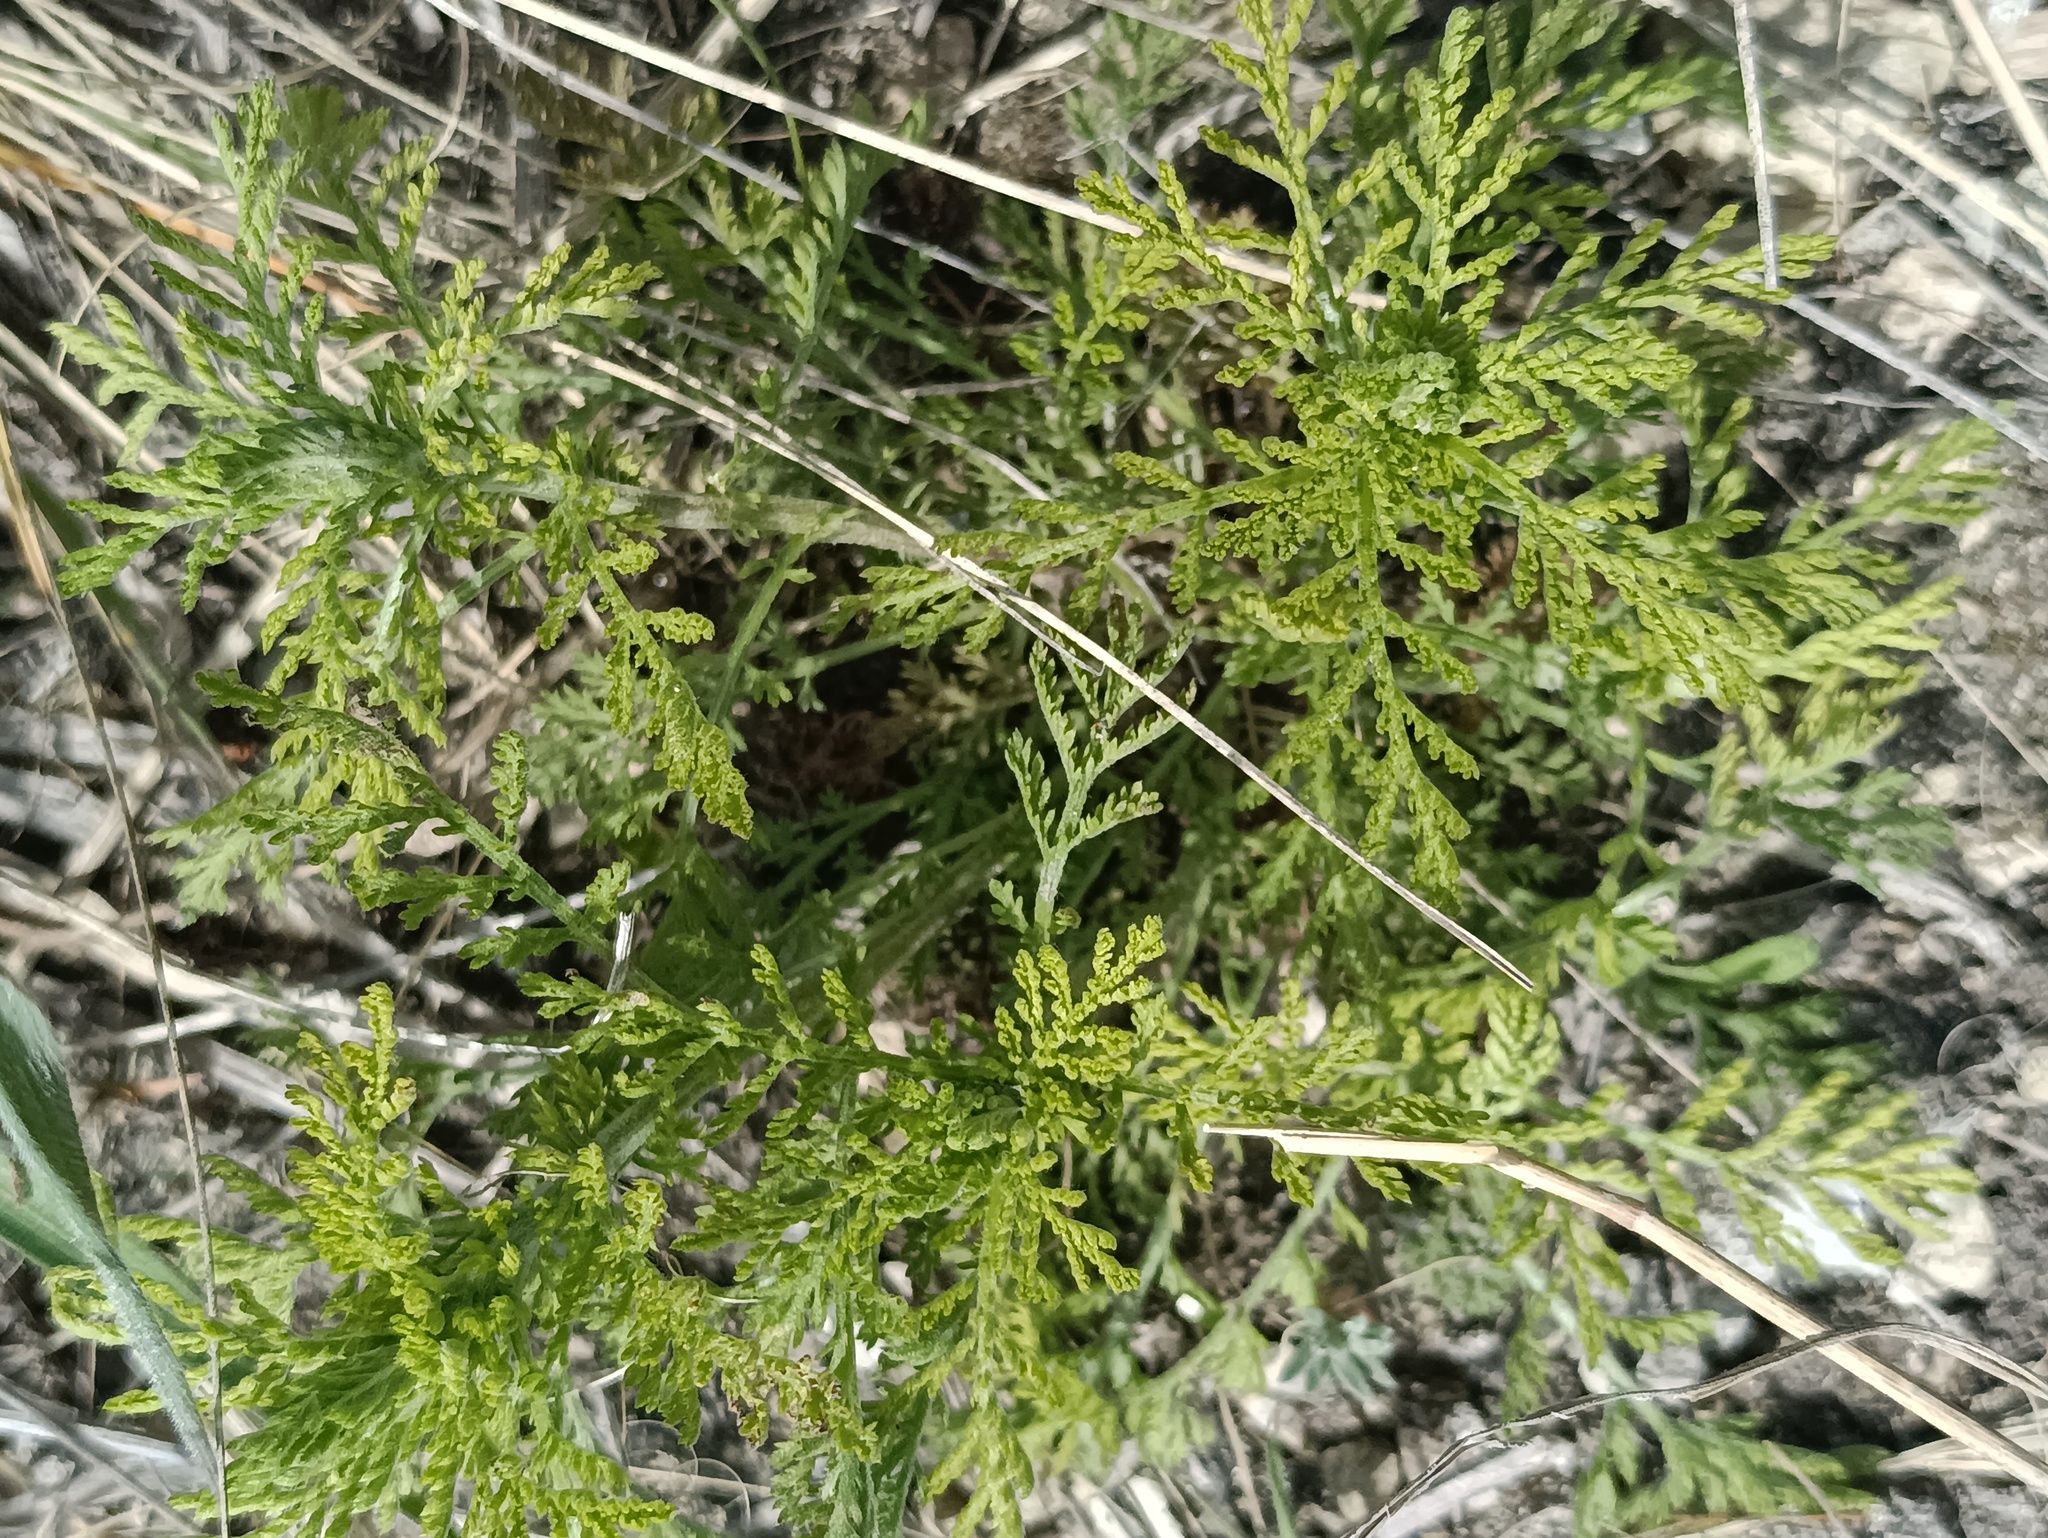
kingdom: Plantae
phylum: Tracheophyta
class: Magnoliopsida
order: Asterales
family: Asteraceae
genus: Achillea
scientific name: Achillea nobilis
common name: Noble yarrow
